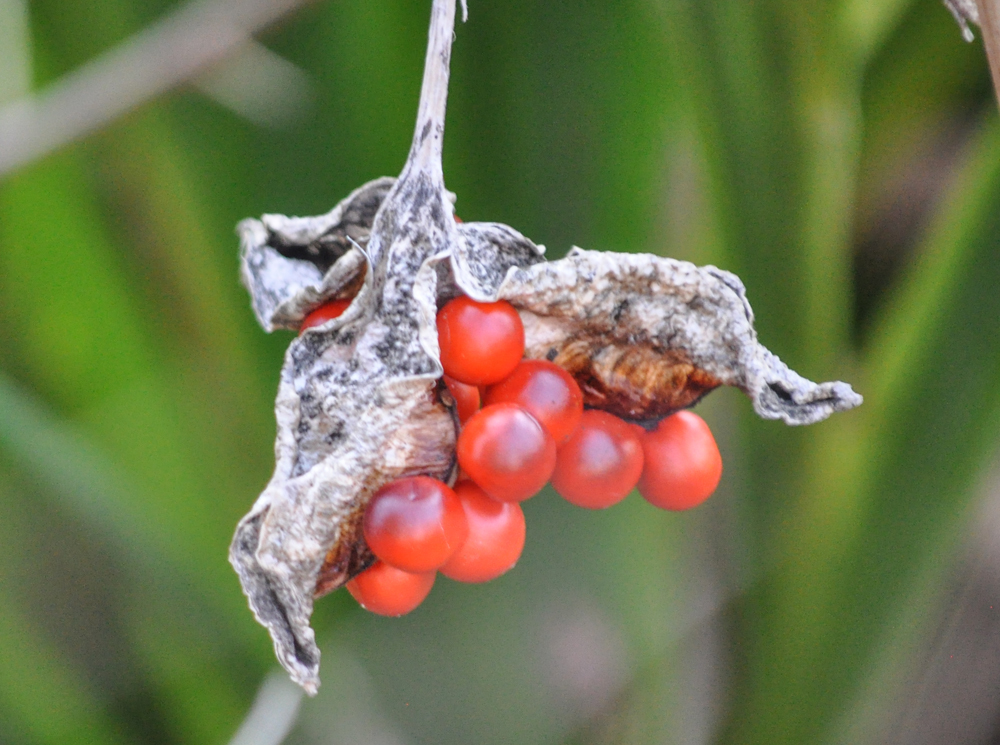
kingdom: Plantae
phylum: Tracheophyta
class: Liliopsida
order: Asparagales
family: Iridaceae
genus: Iris
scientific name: Iris foetidissima
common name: Stinking iris
